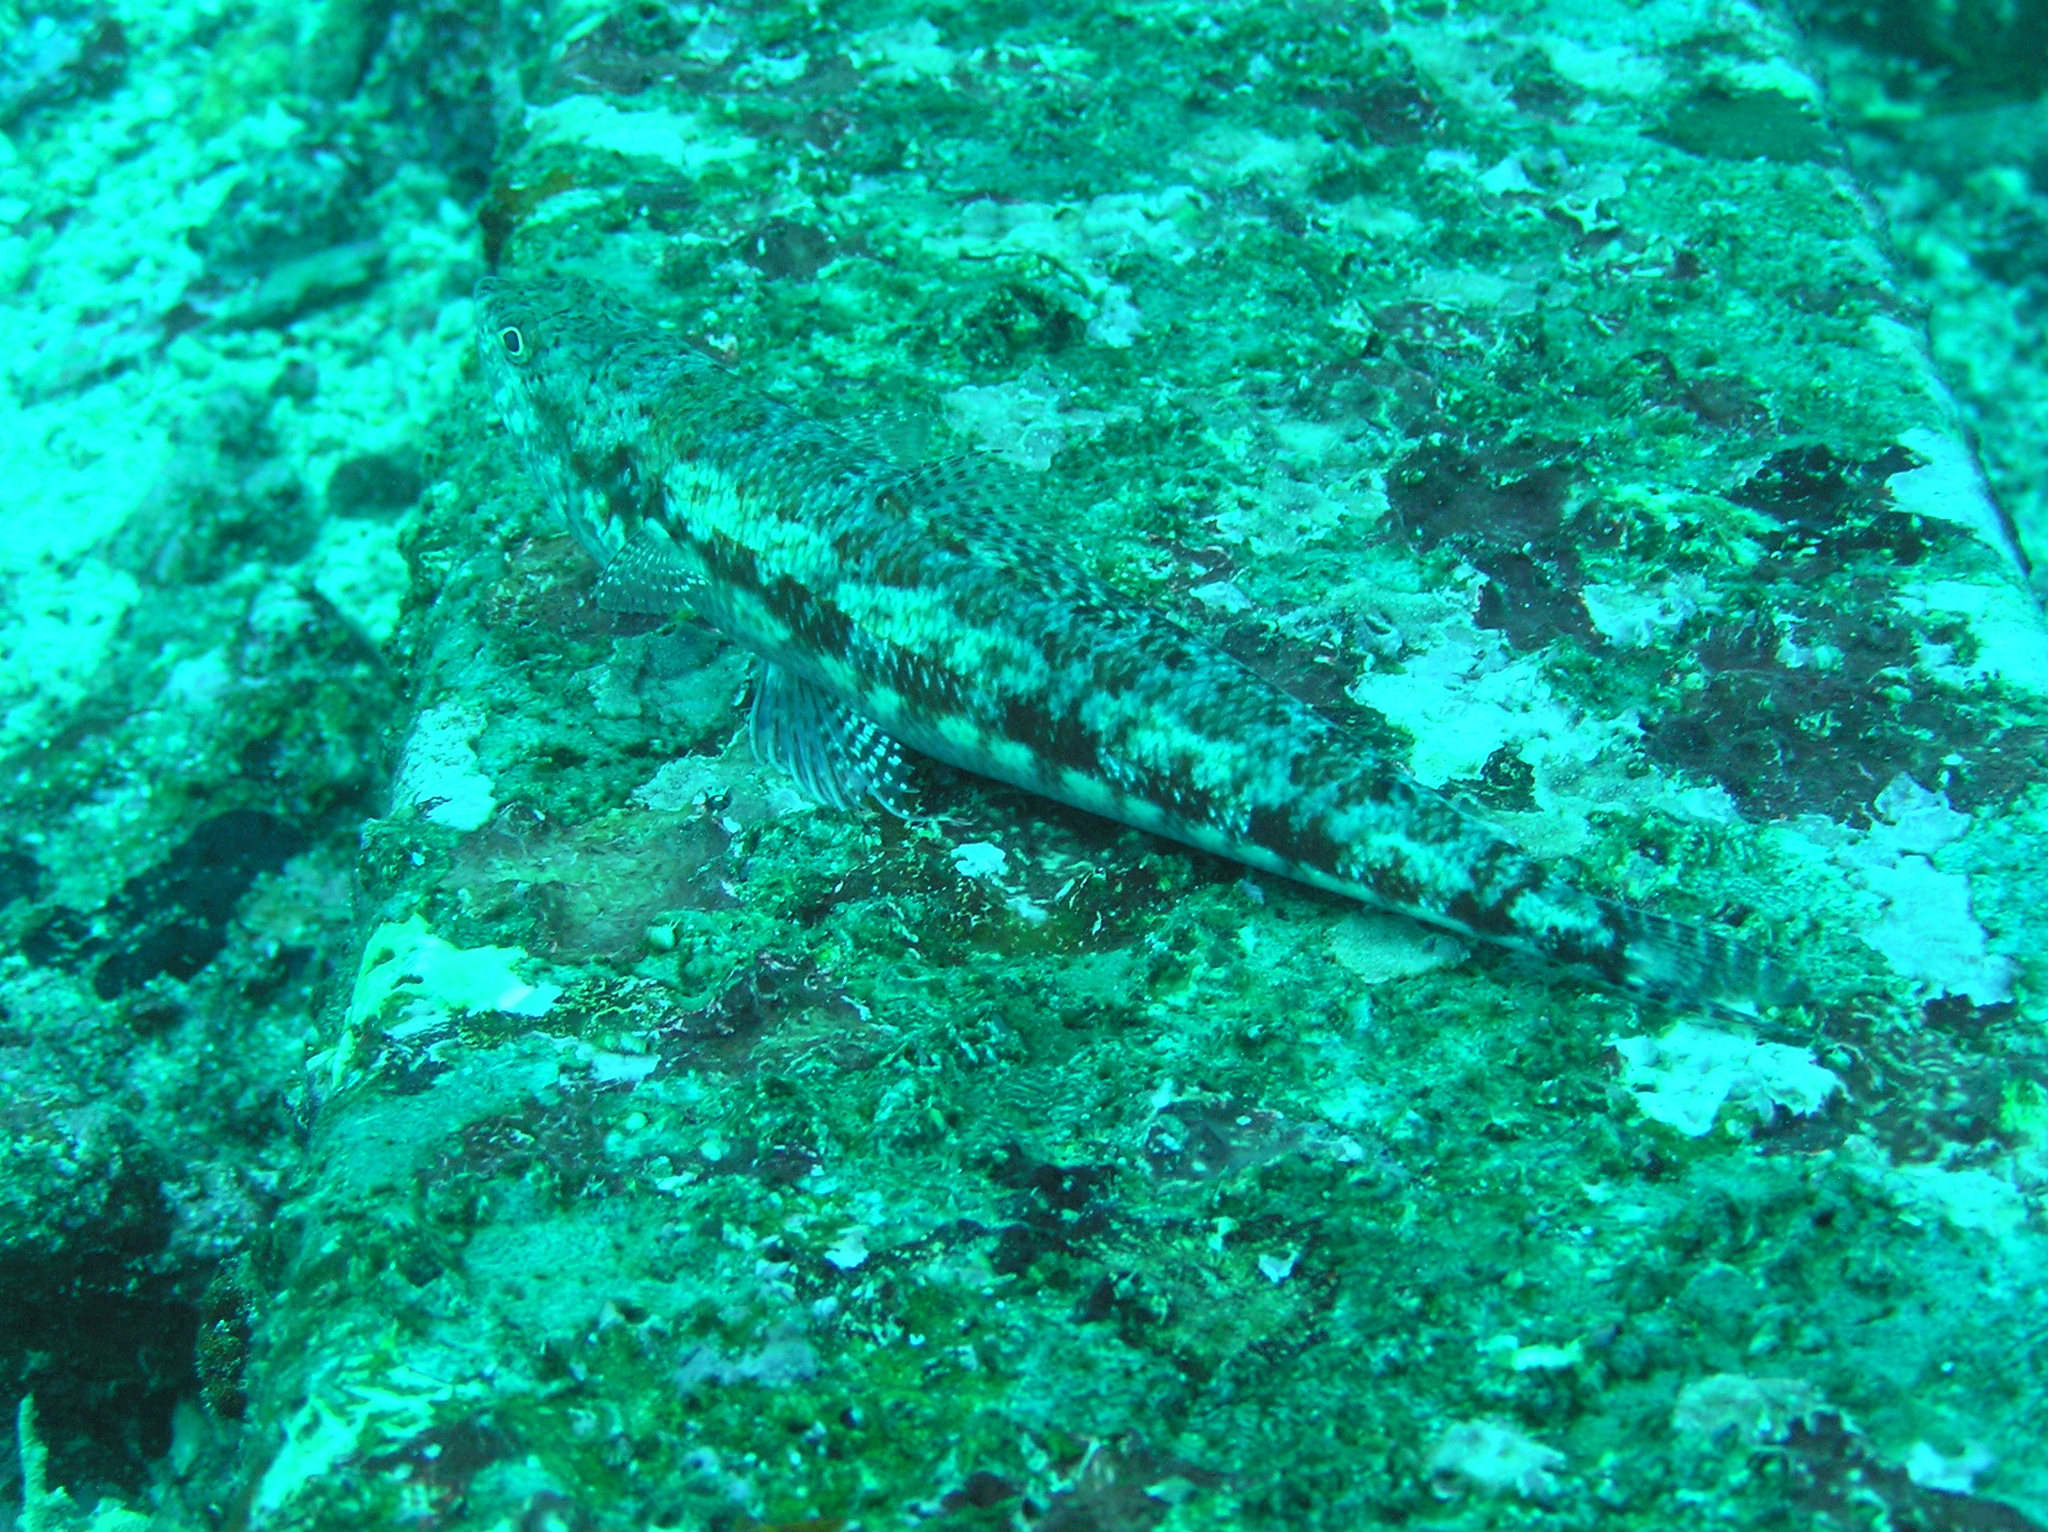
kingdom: Animalia
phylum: Chordata
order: Aulopiformes
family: Synodontidae
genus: Synodus
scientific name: Synodus variegatus
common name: Variegated lizardfish
